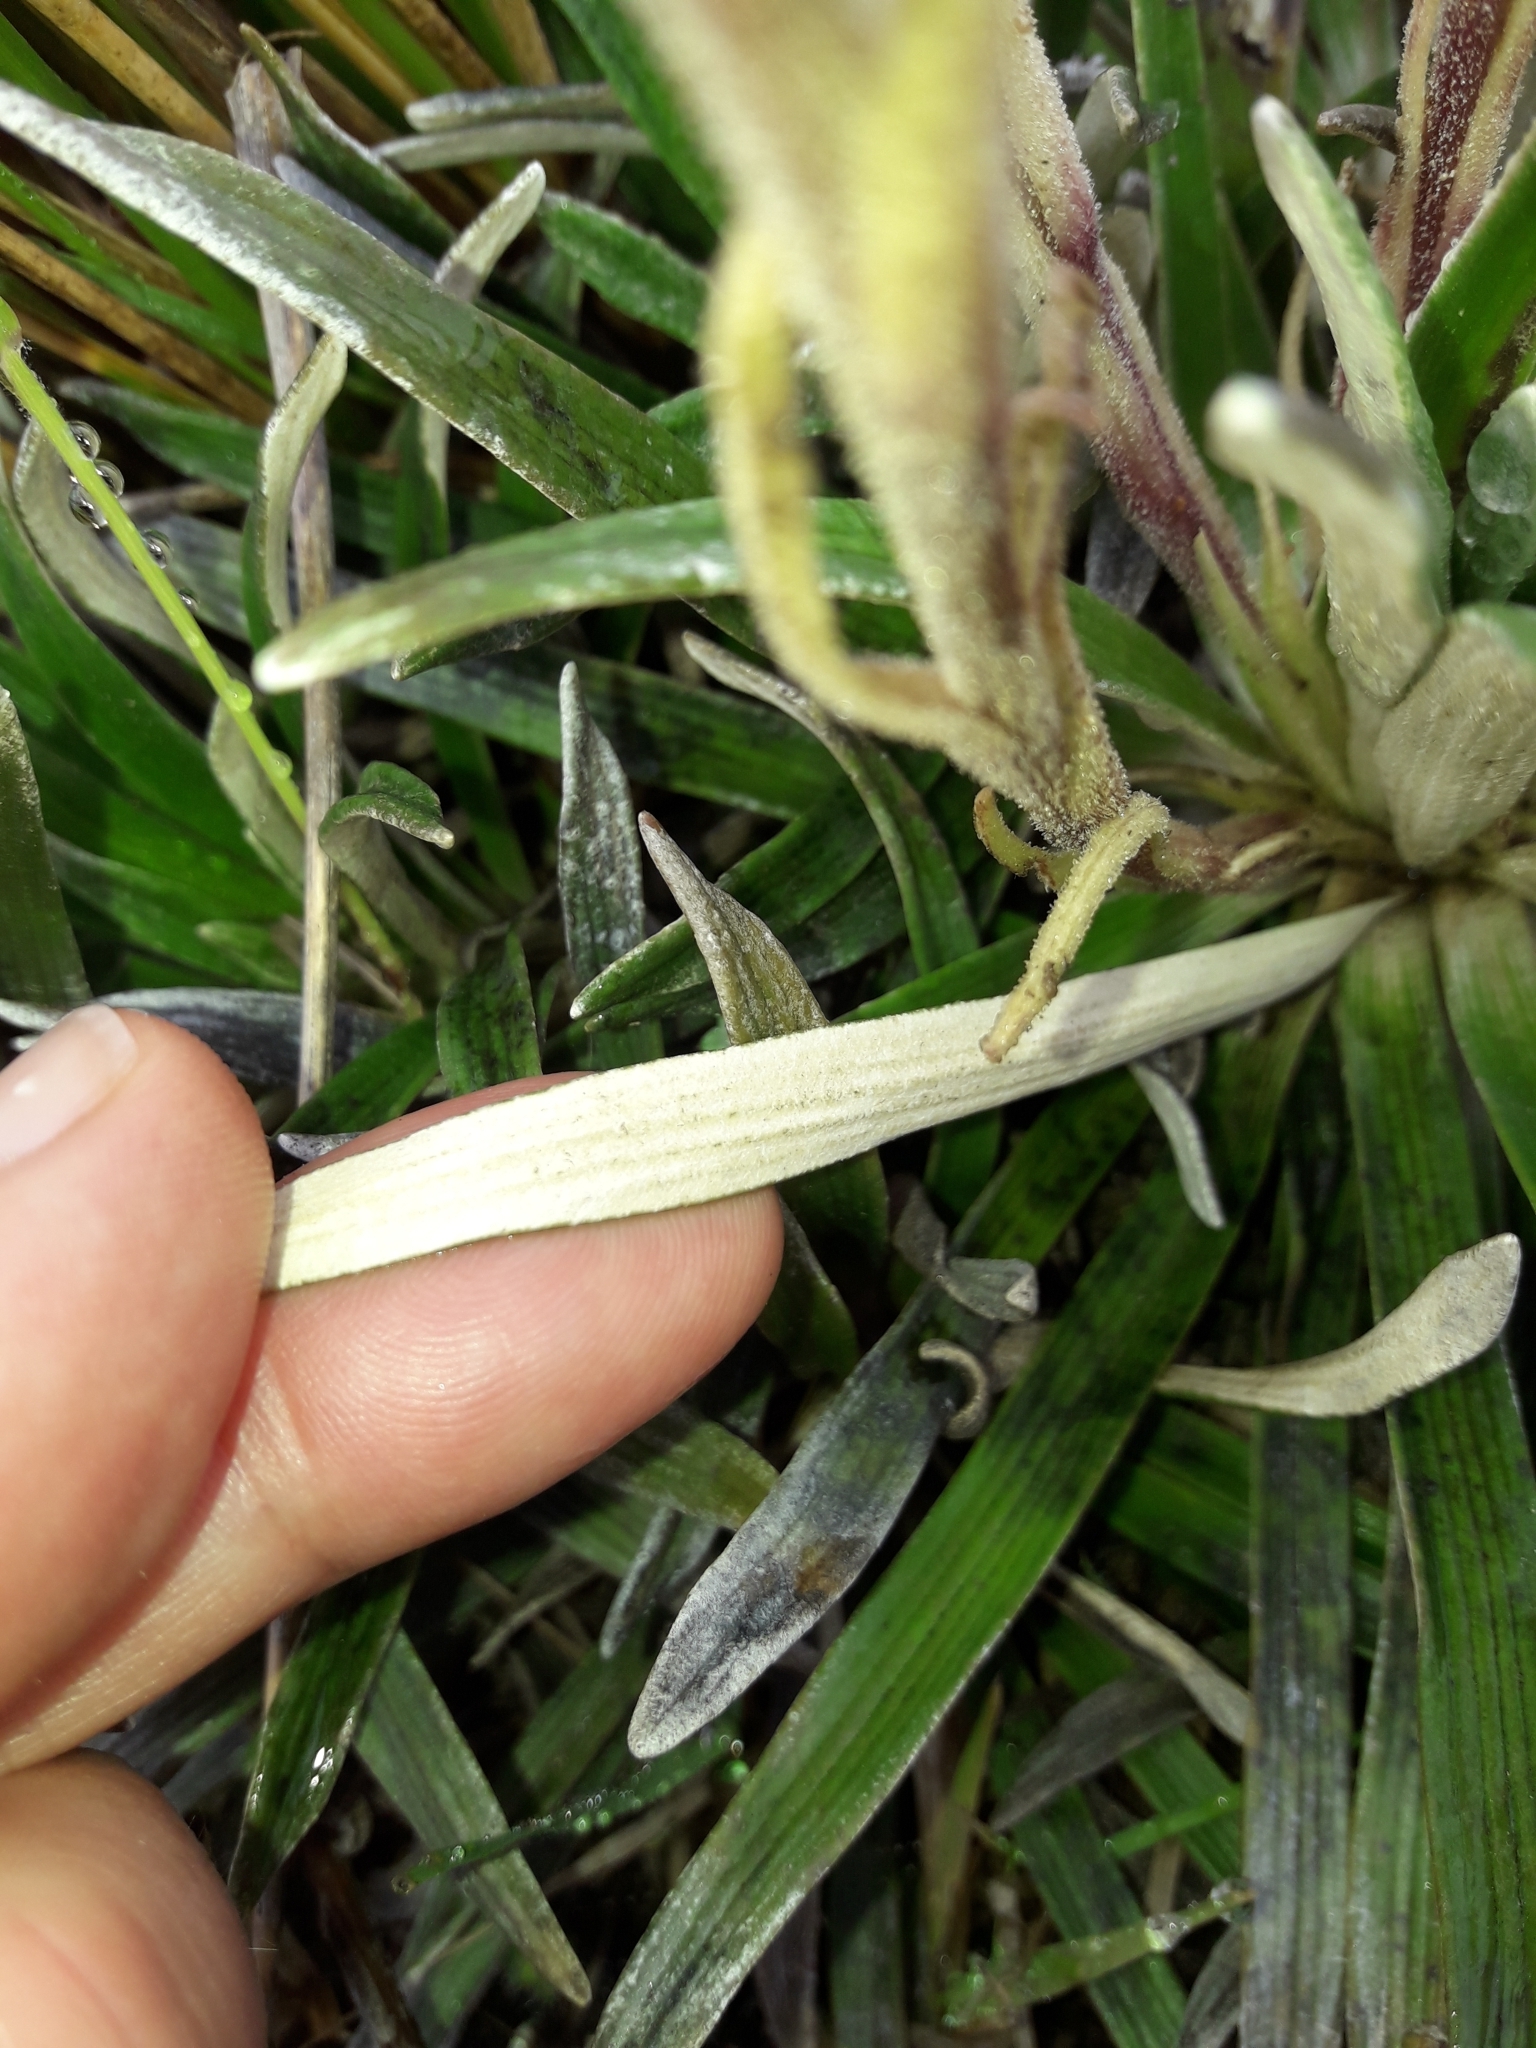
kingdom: Plantae
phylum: Tracheophyta
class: Magnoliopsida
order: Asterales
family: Asteraceae
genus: Celmisia
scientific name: Celmisia viscosa
